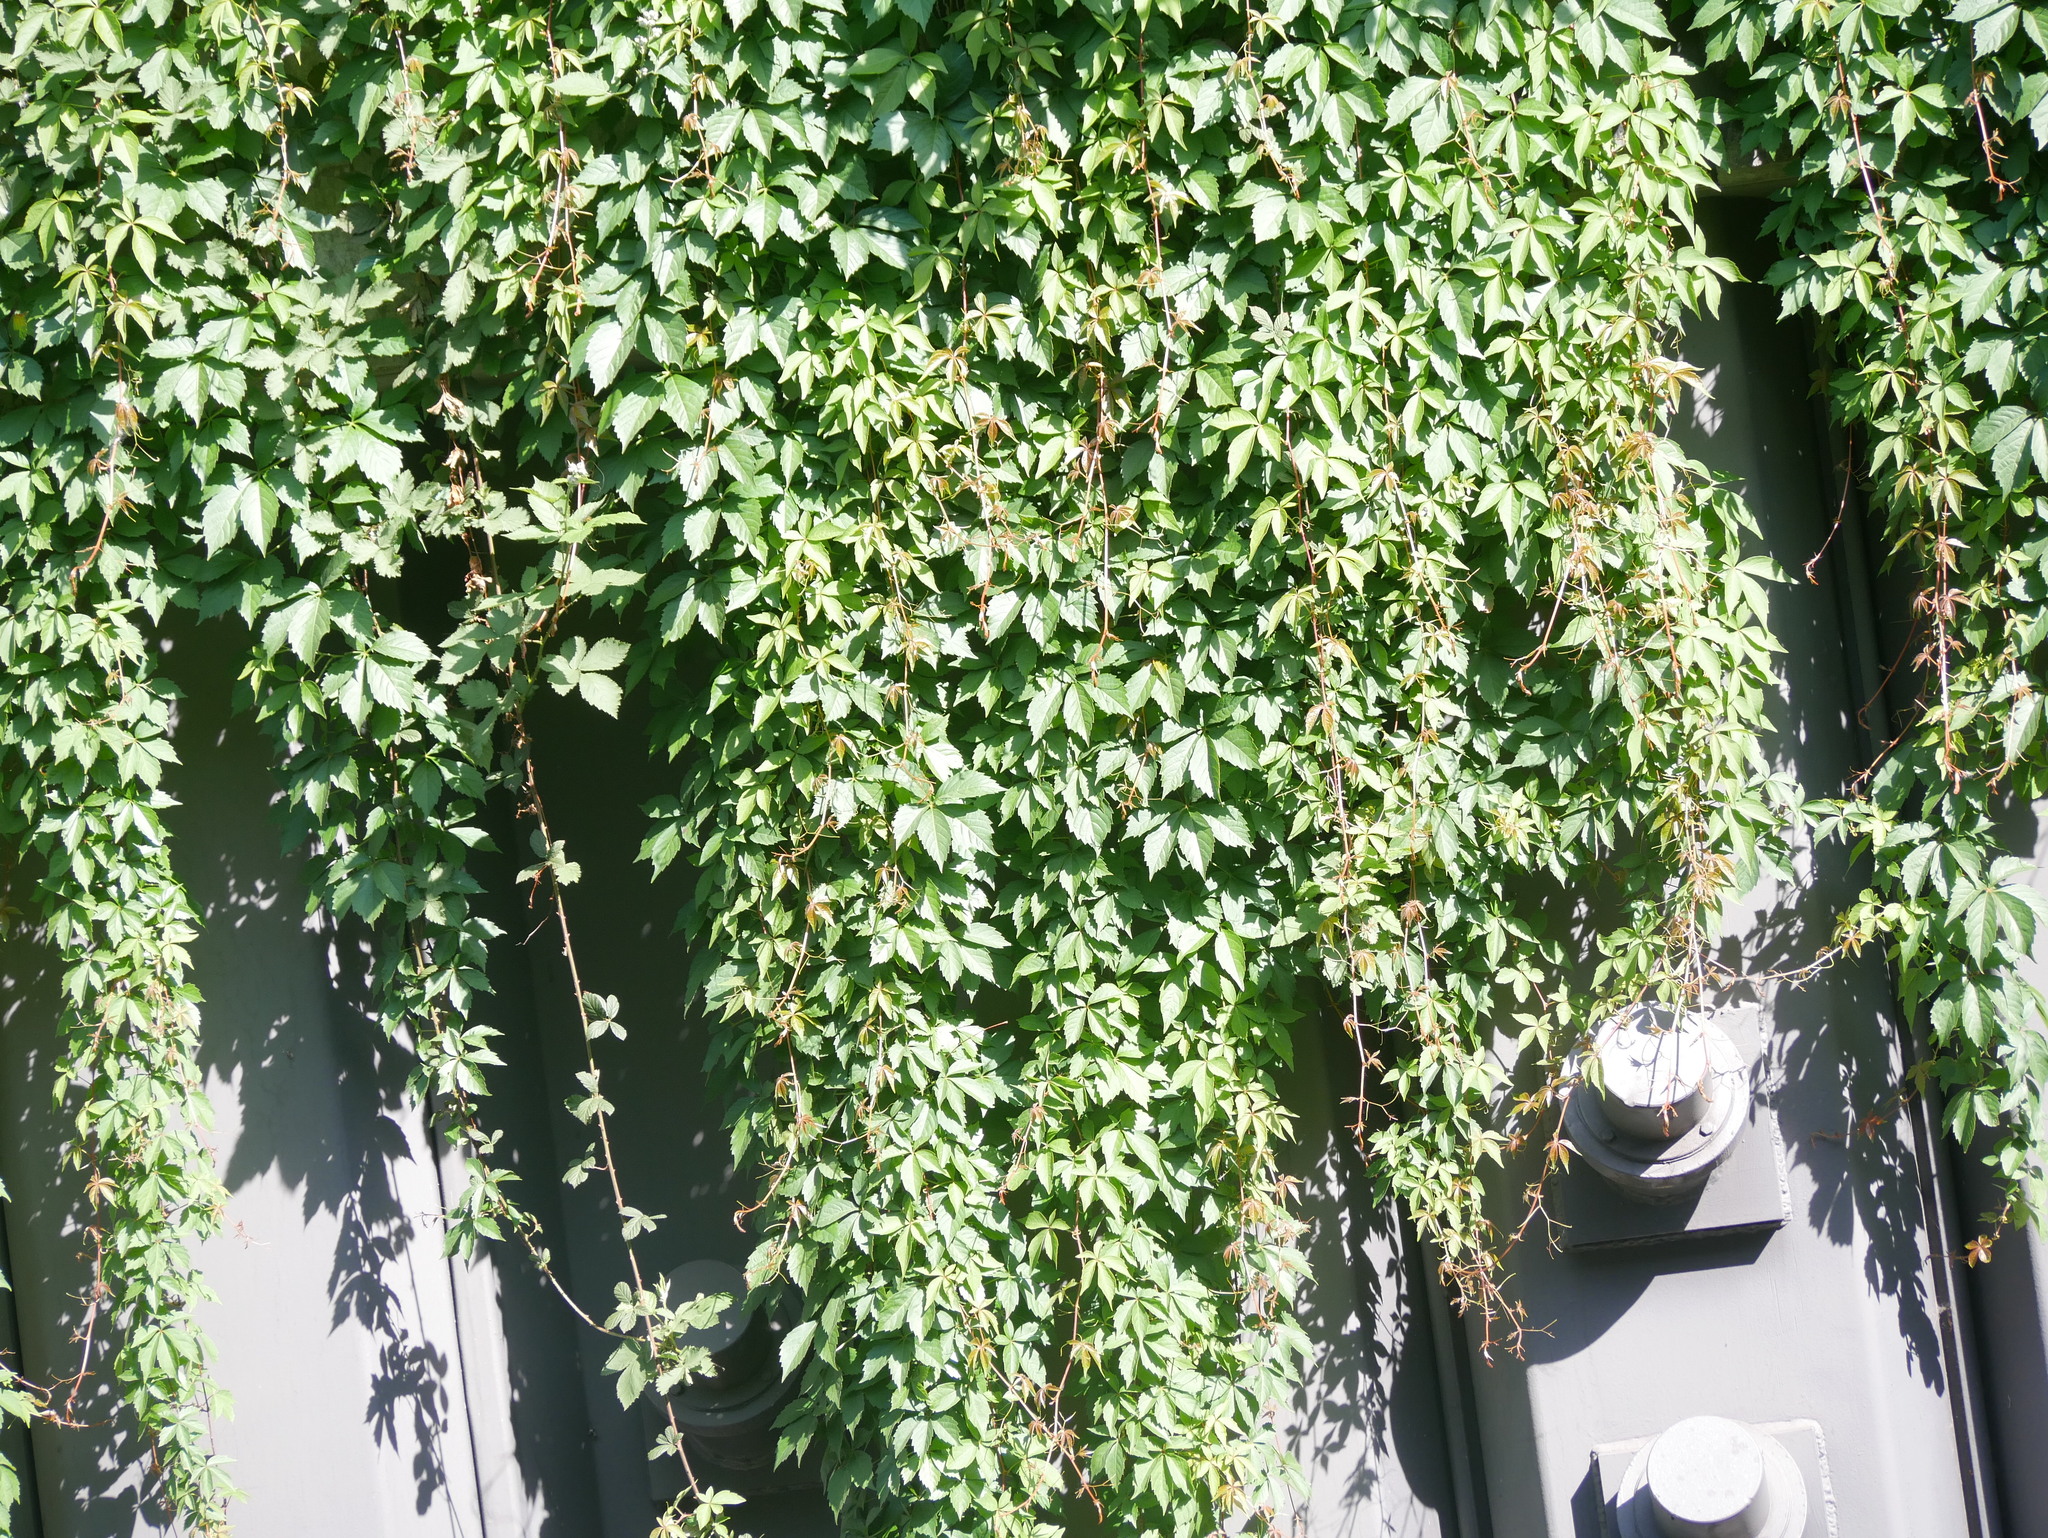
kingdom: Plantae
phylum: Tracheophyta
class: Magnoliopsida
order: Vitales
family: Vitaceae
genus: Parthenocissus
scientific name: Parthenocissus quinquefolia
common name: Virginia-creeper
